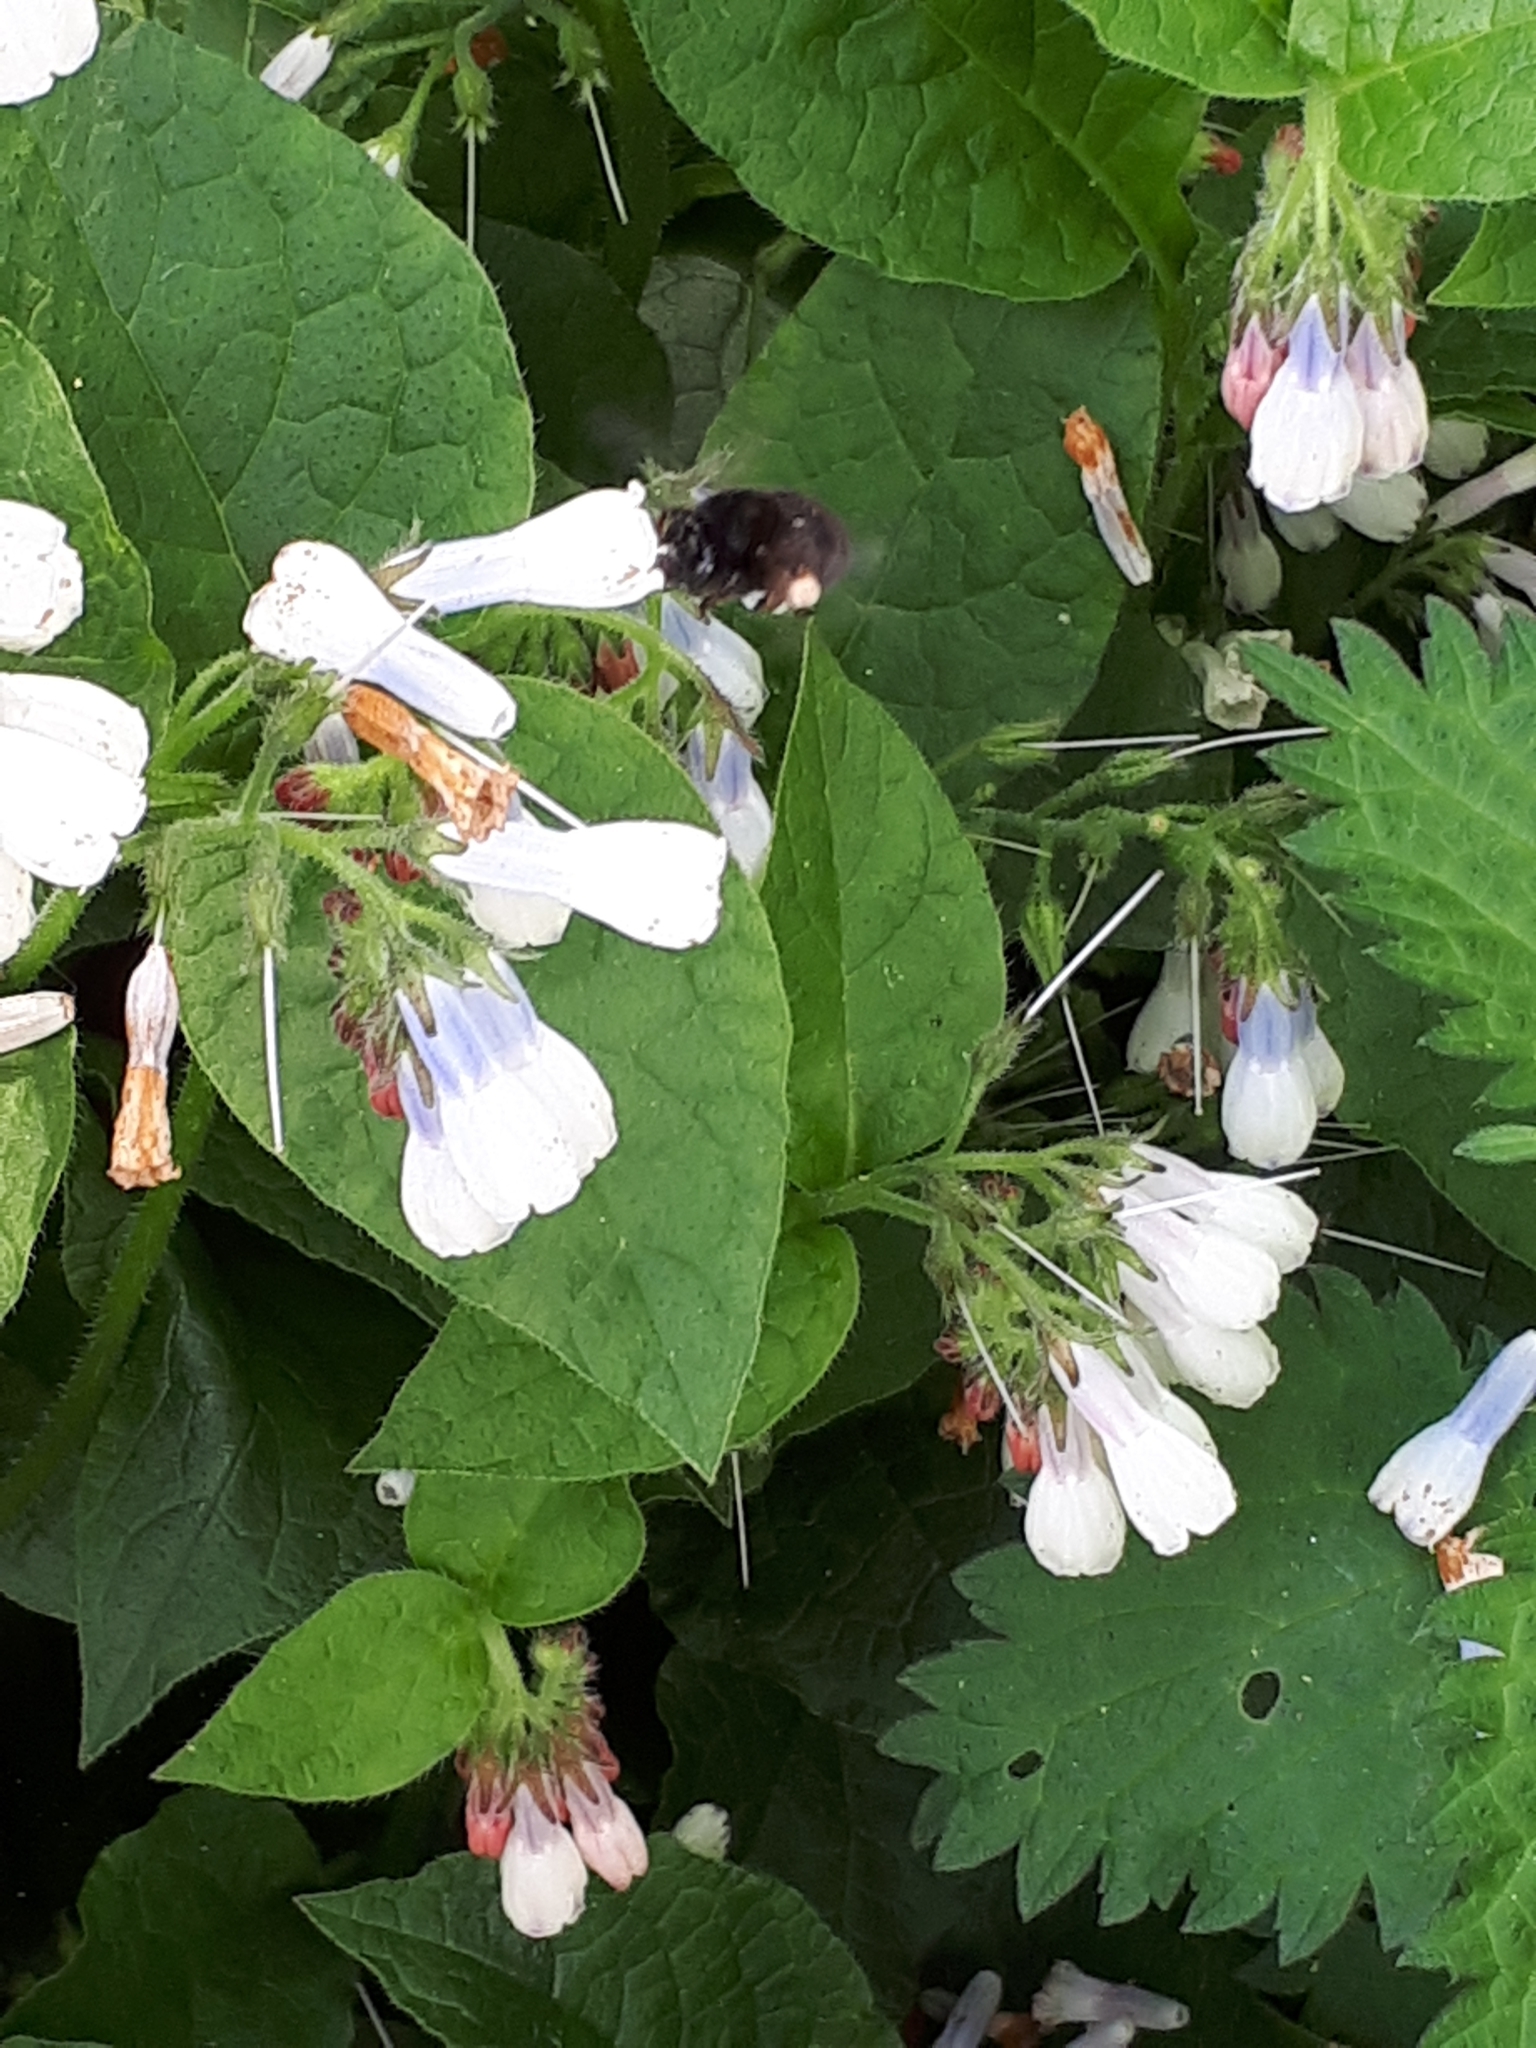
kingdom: Animalia
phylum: Arthropoda
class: Insecta
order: Hymenoptera
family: Apidae
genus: Anthophora
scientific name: Anthophora plumipes
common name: Hairy-footed flower bee
